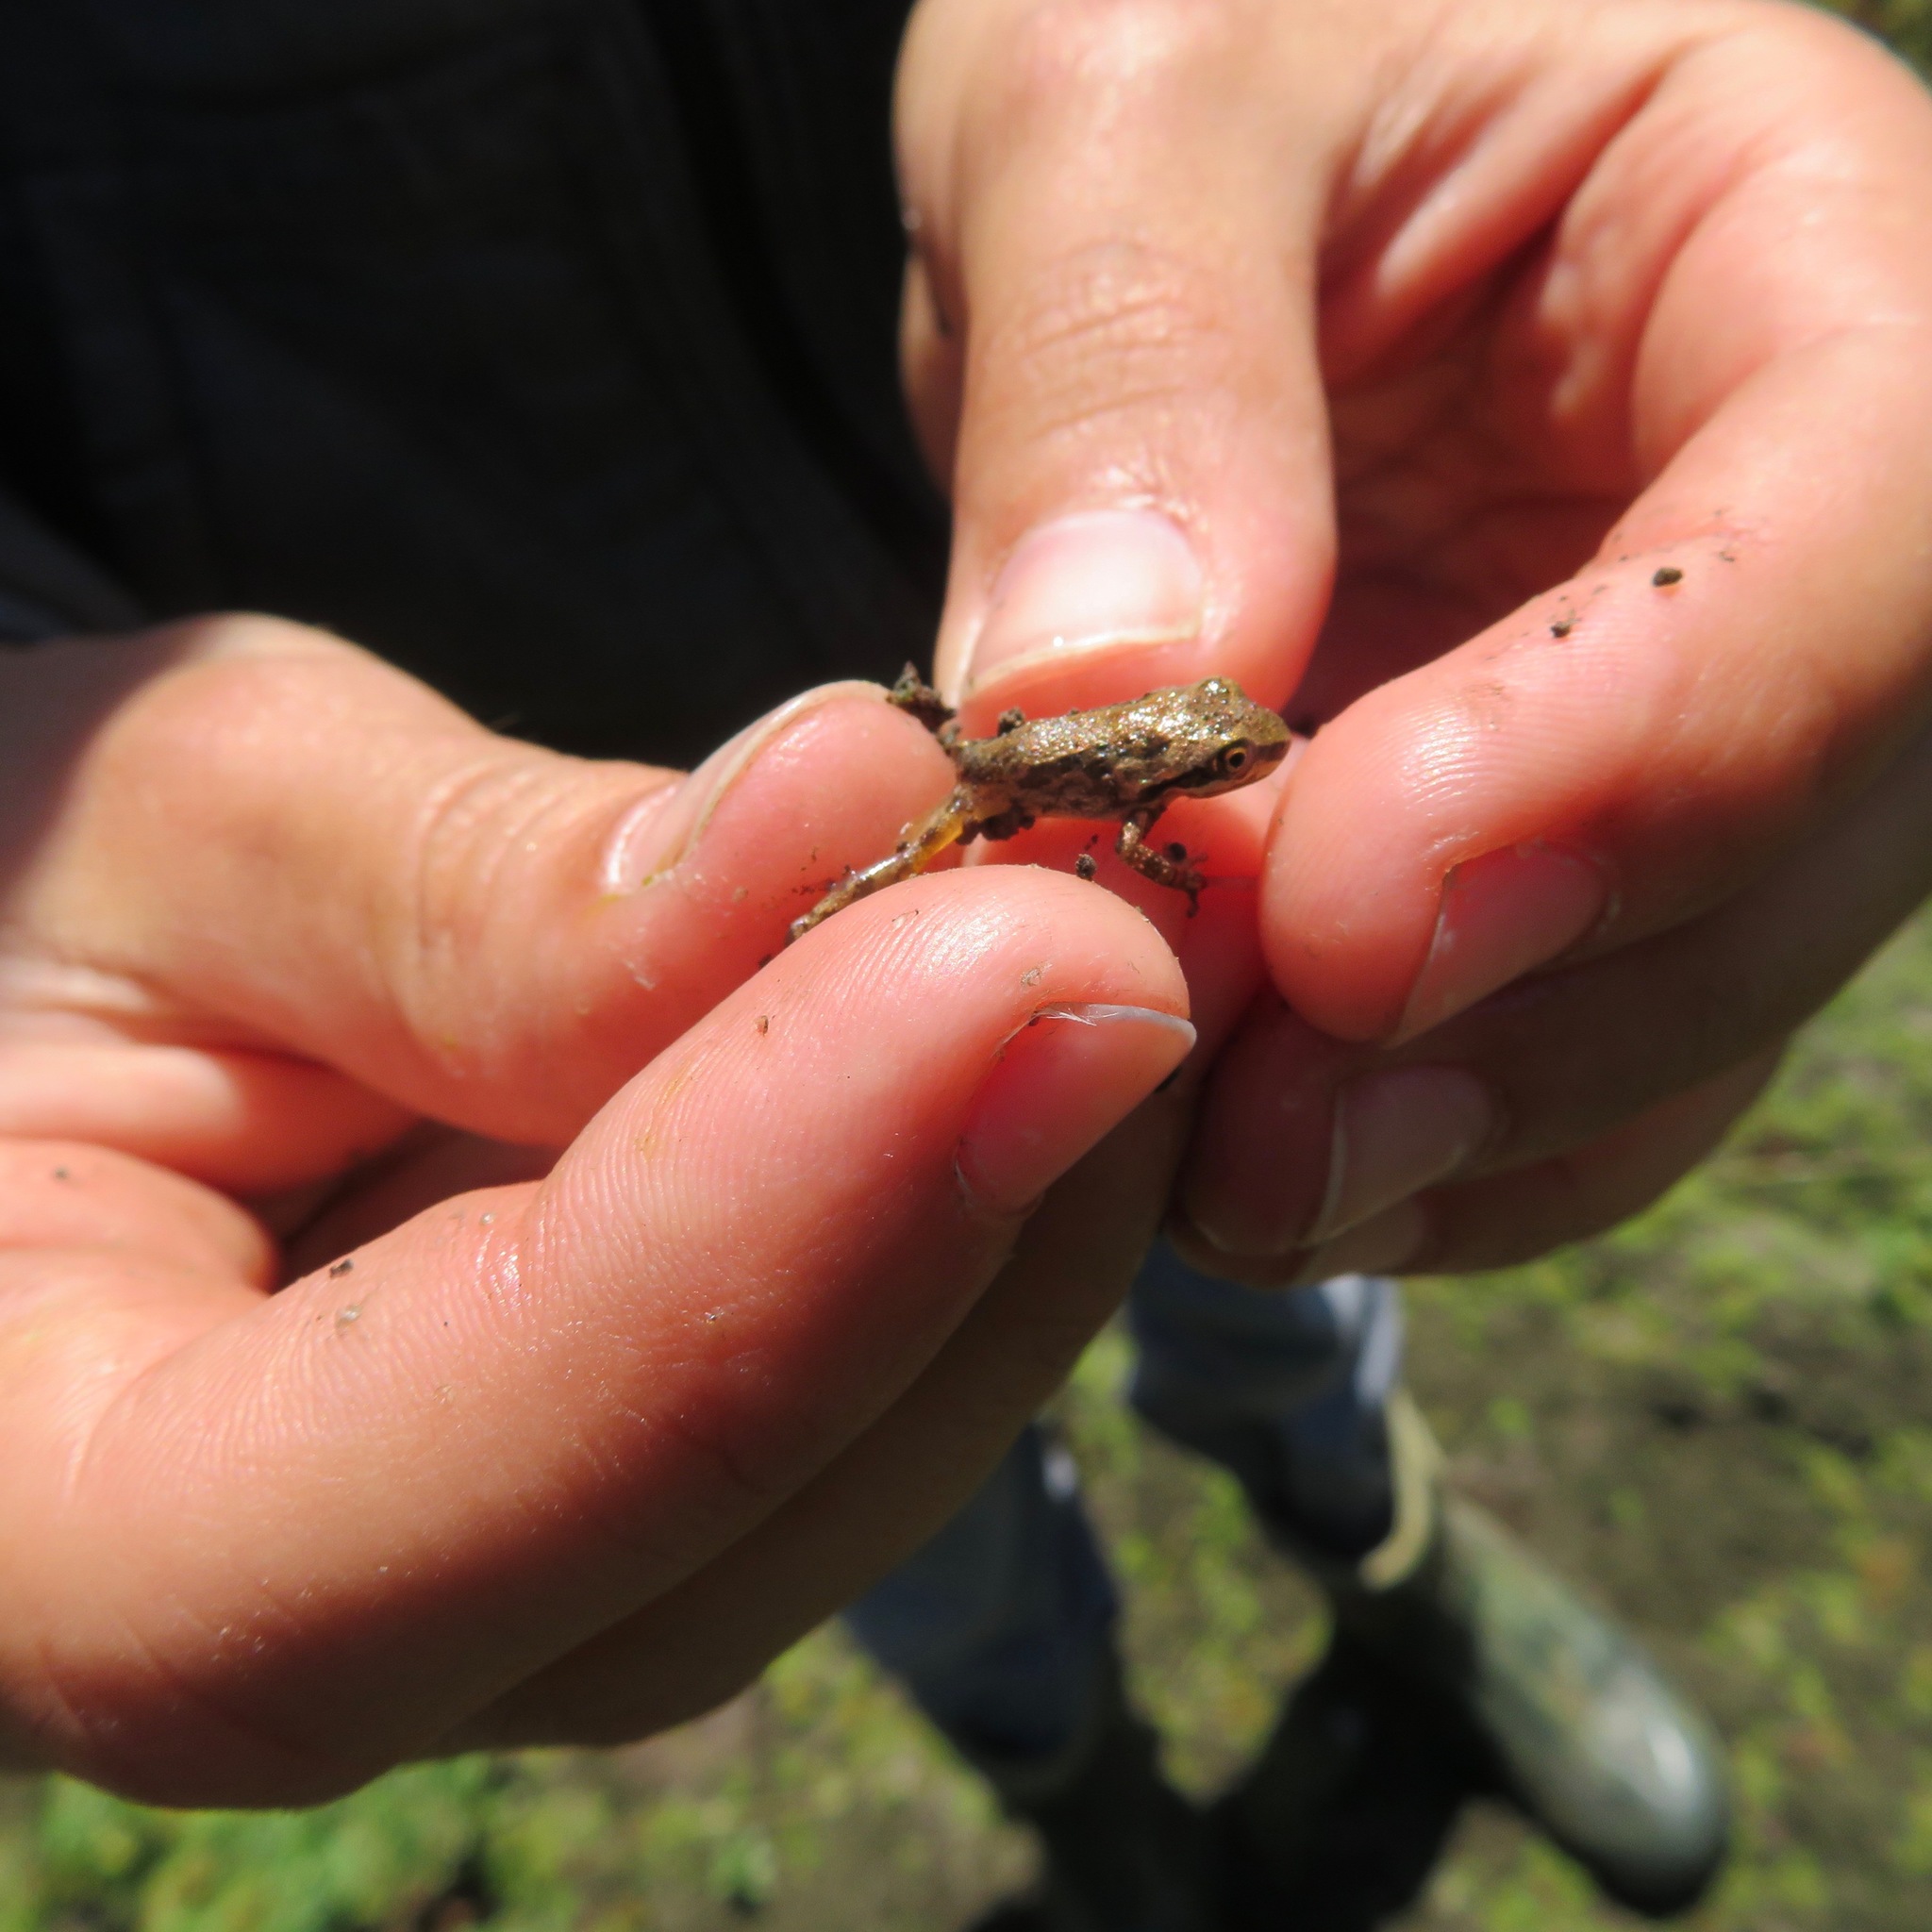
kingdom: Animalia
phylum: Chordata
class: Amphibia
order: Anura
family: Hylidae
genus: Pseudacris
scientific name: Pseudacris regilla
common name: Pacific chorus frog
